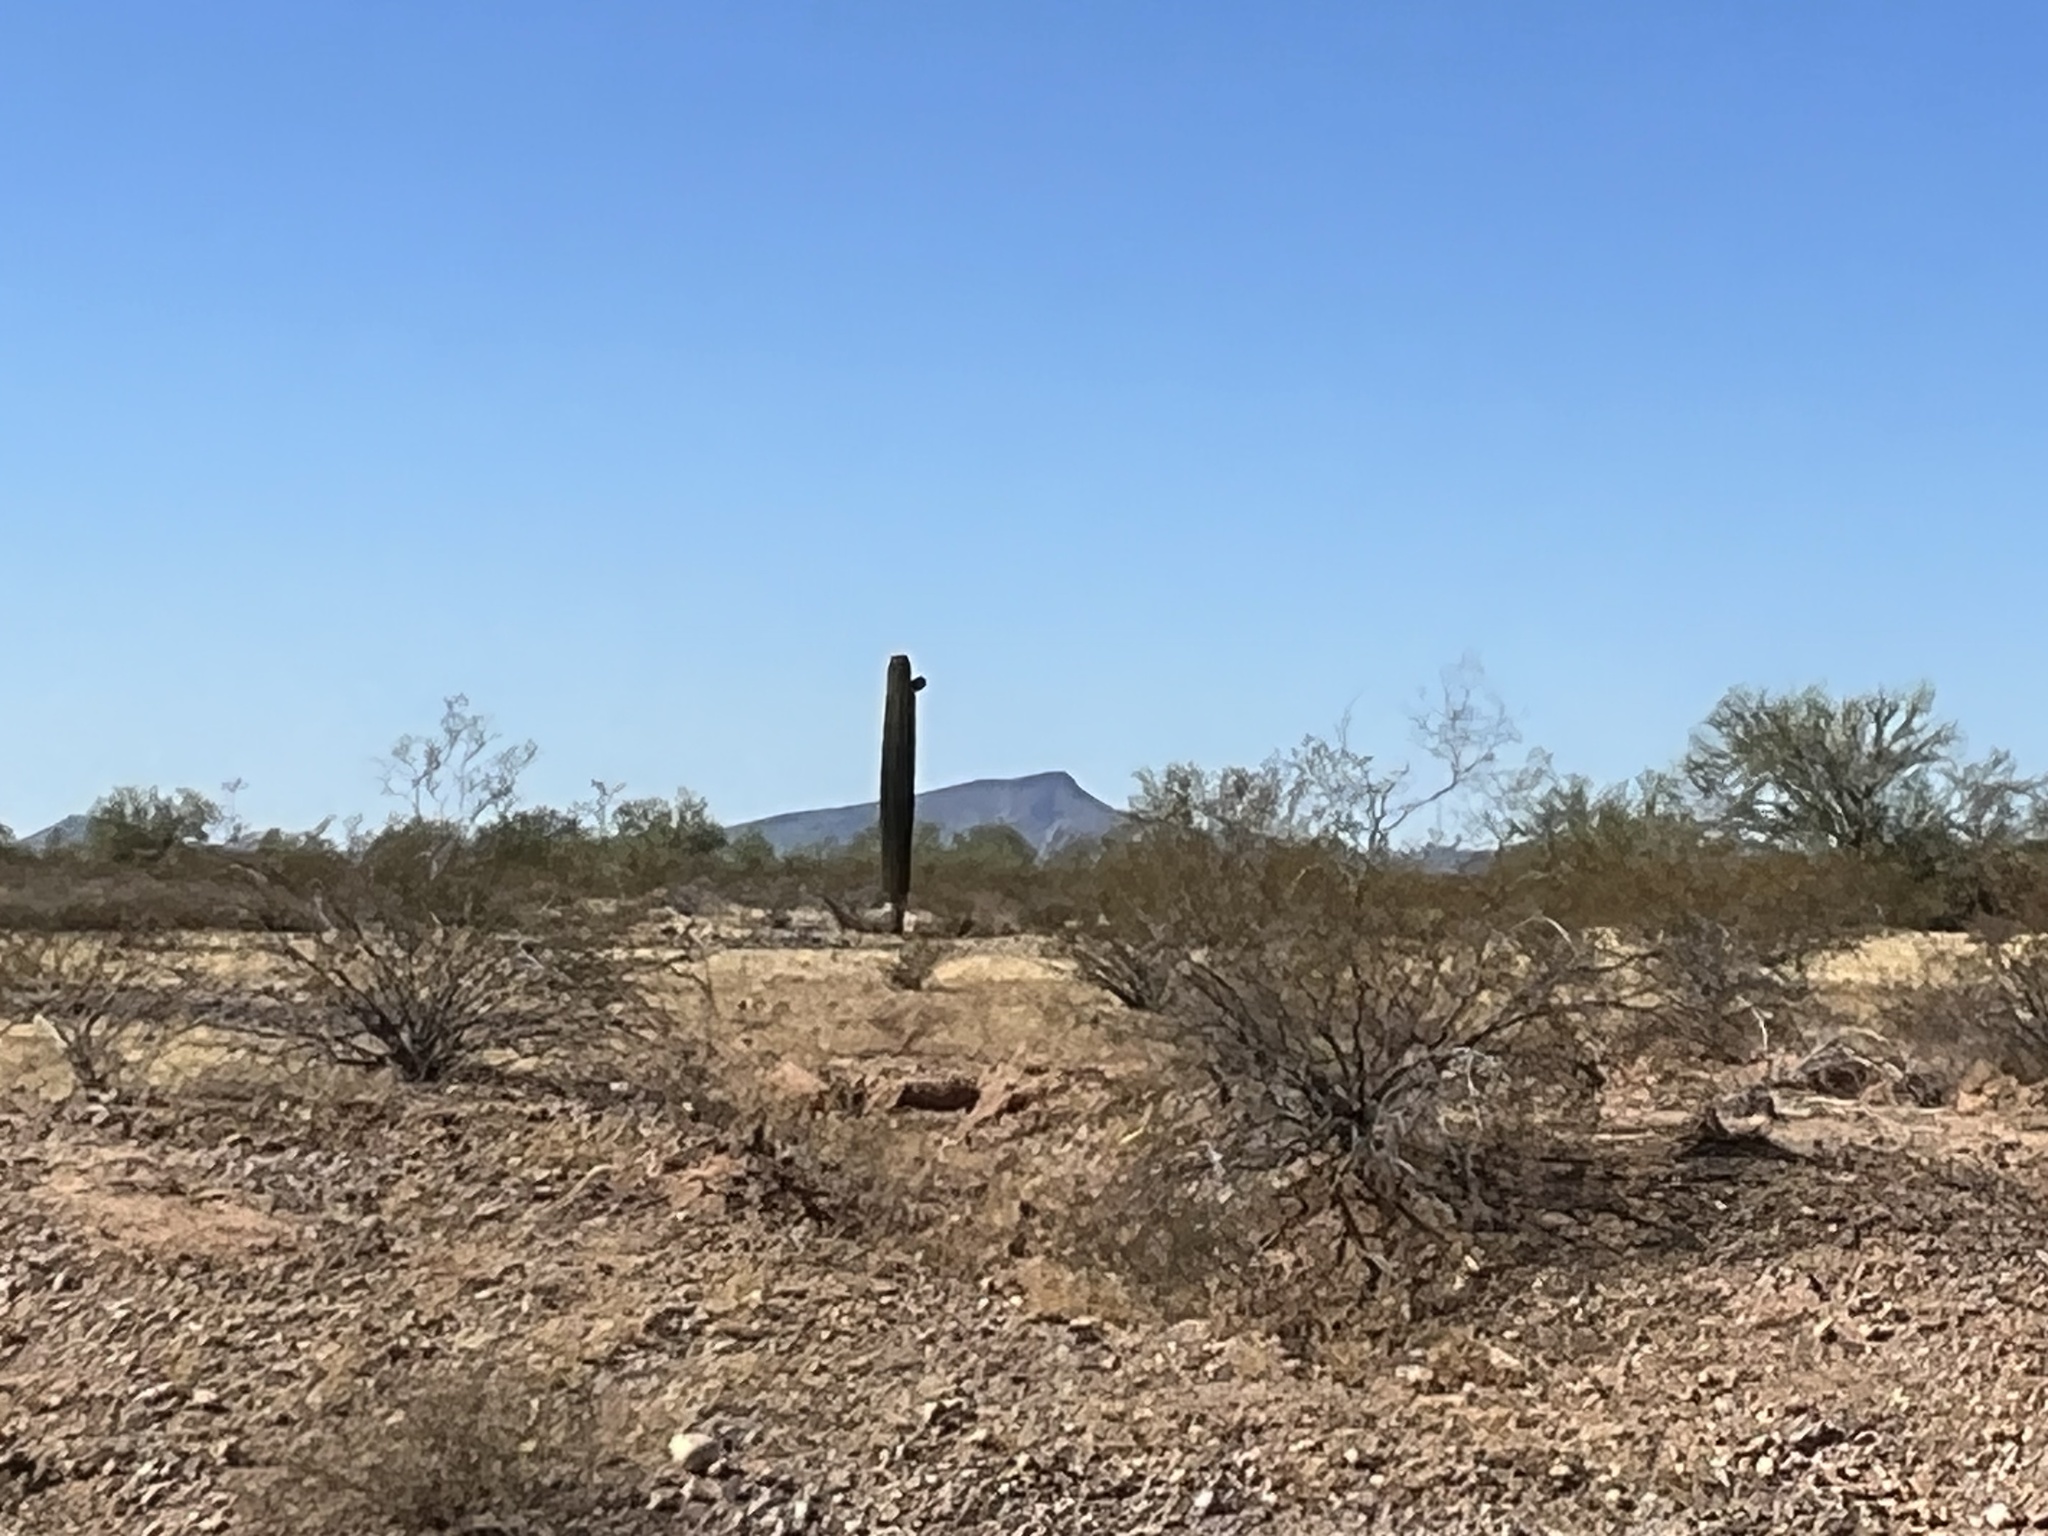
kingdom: Plantae
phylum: Tracheophyta
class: Magnoliopsida
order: Caryophyllales
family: Cactaceae
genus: Carnegiea
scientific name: Carnegiea gigantea
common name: Saguaro
